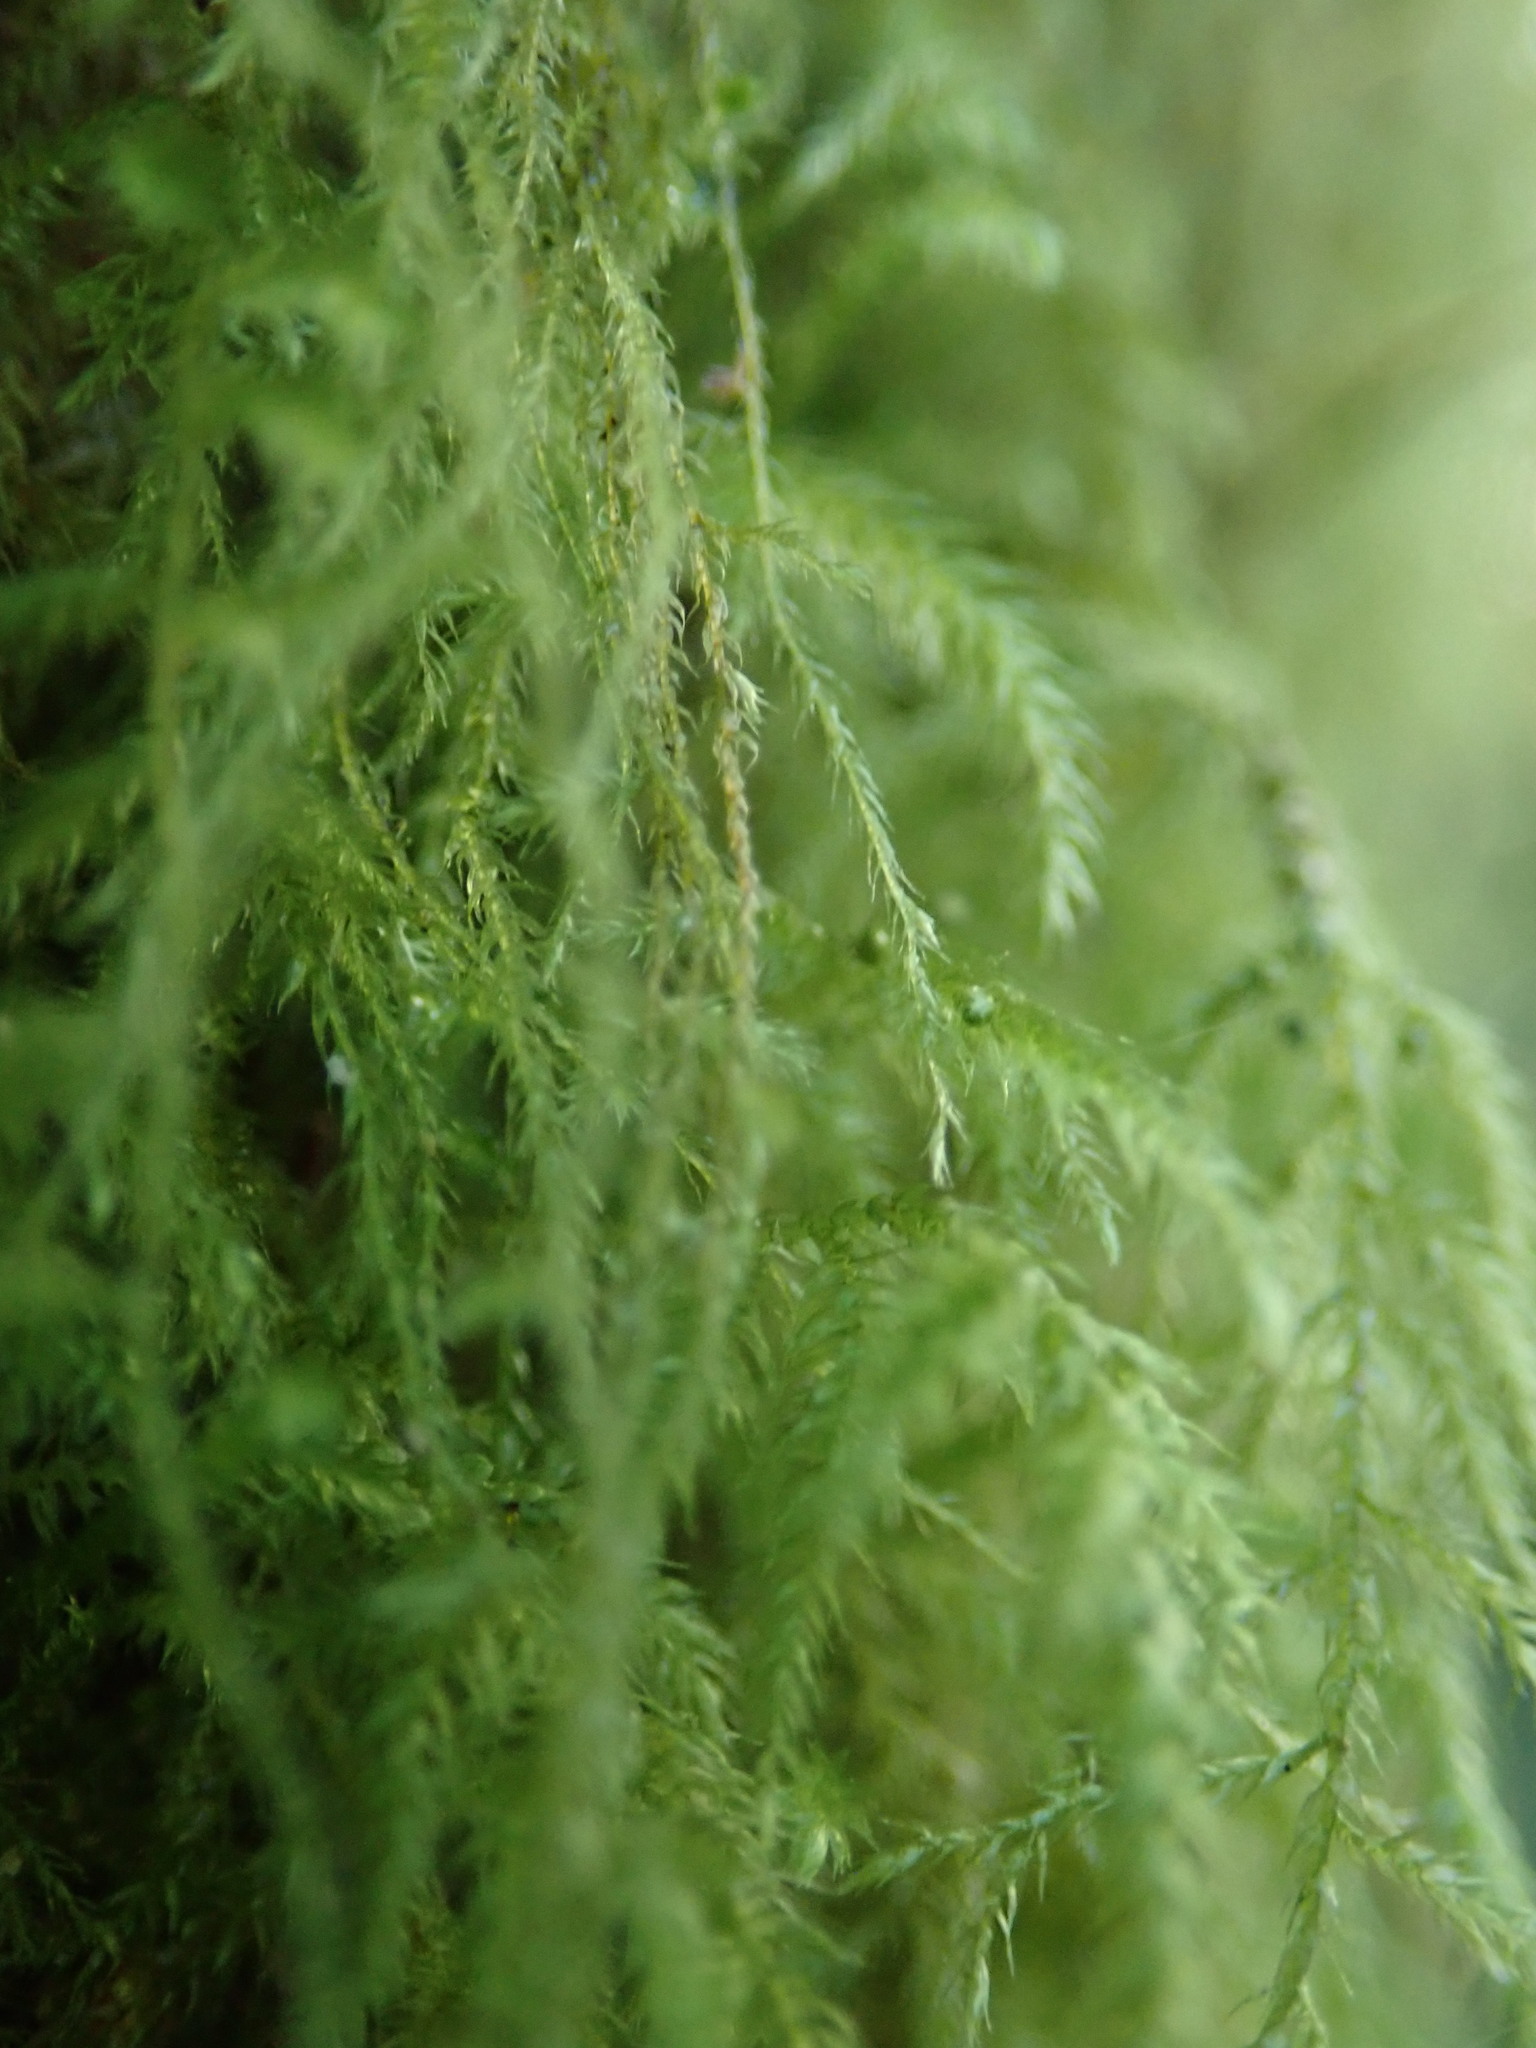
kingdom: Plantae
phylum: Bryophyta
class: Bryopsida
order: Hypnales
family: Lembophyllaceae
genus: Pseudisothecium
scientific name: Pseudisothecium stoloniferum
